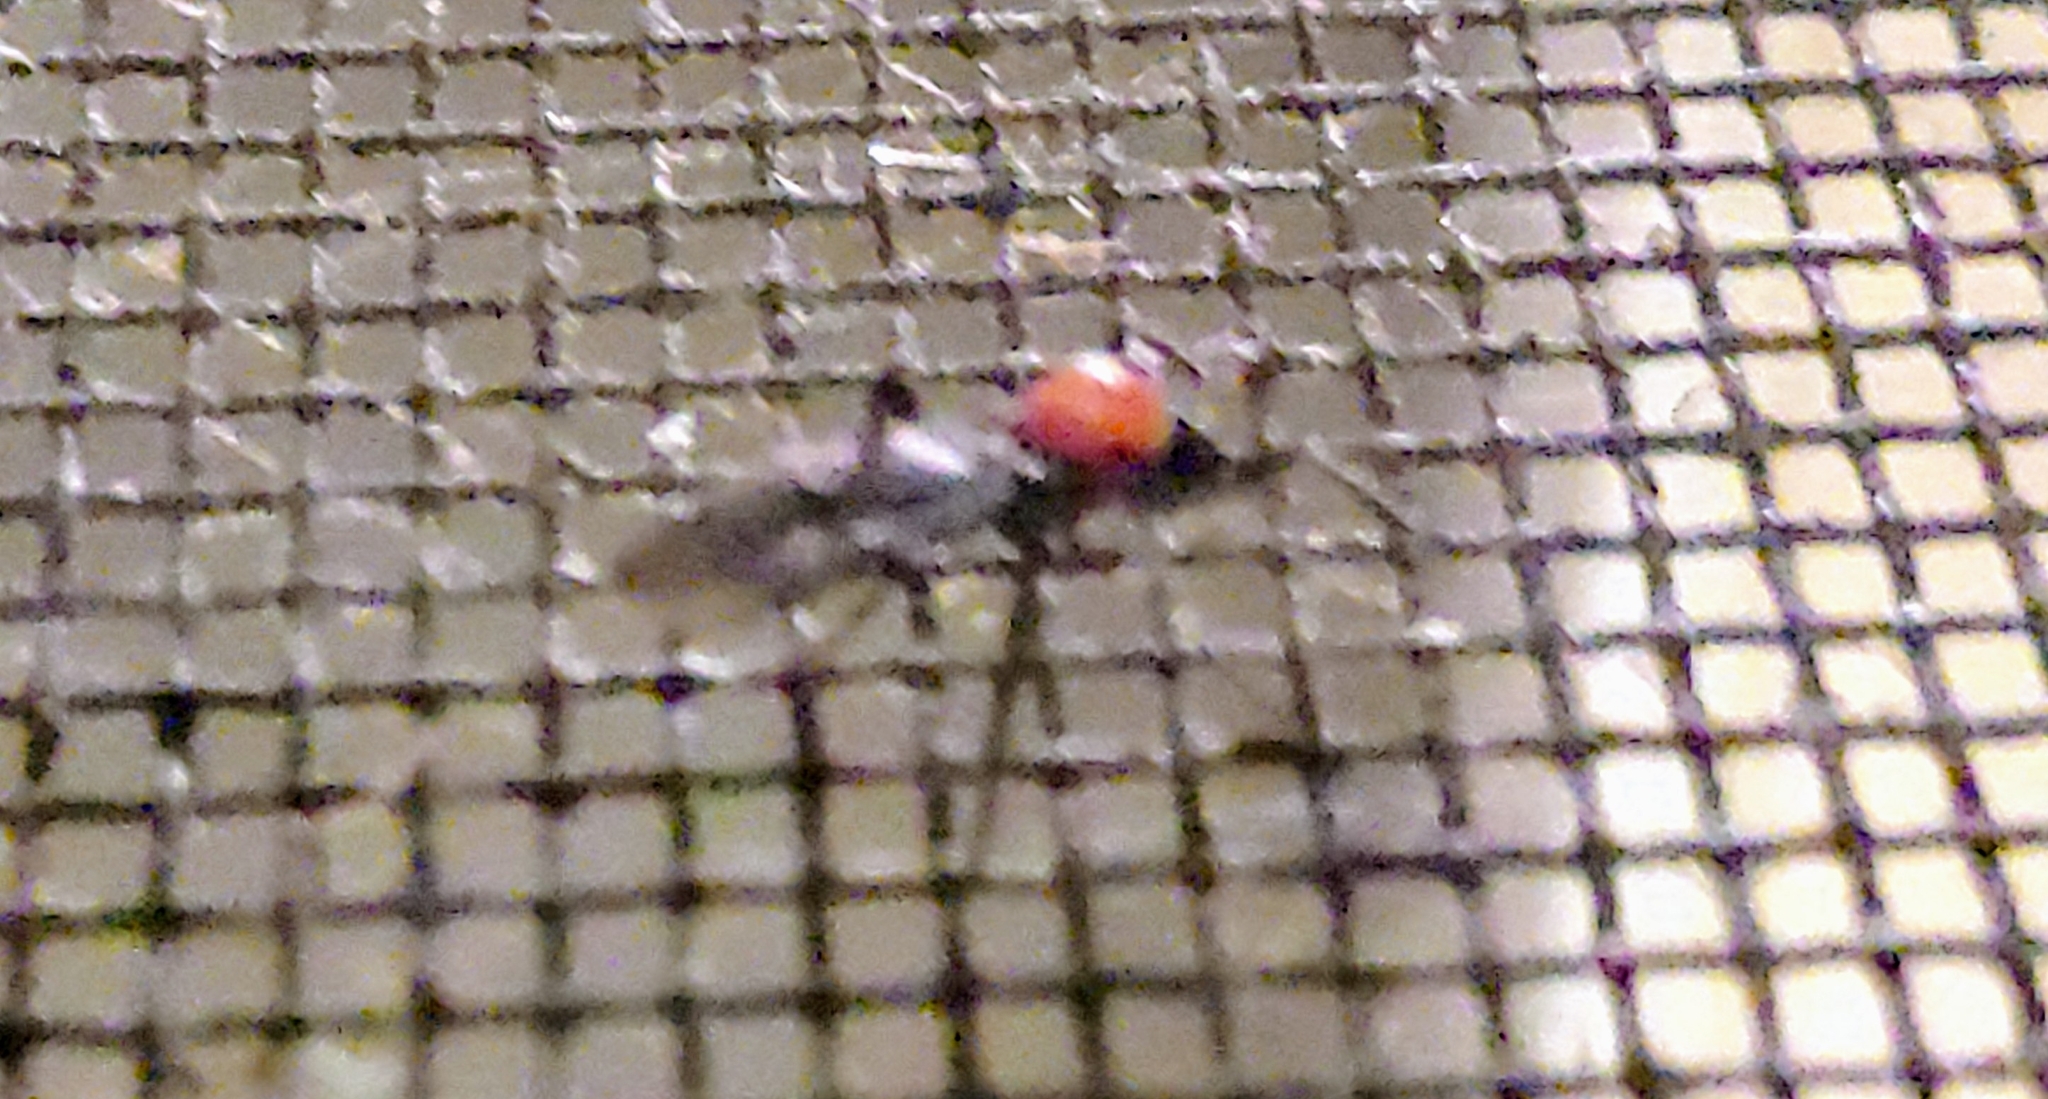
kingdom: Animalia
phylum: Arthropoda
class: Insecta
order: Diptera
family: Bibionidae
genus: Plecia
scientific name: Plecia nearctica
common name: March fly
